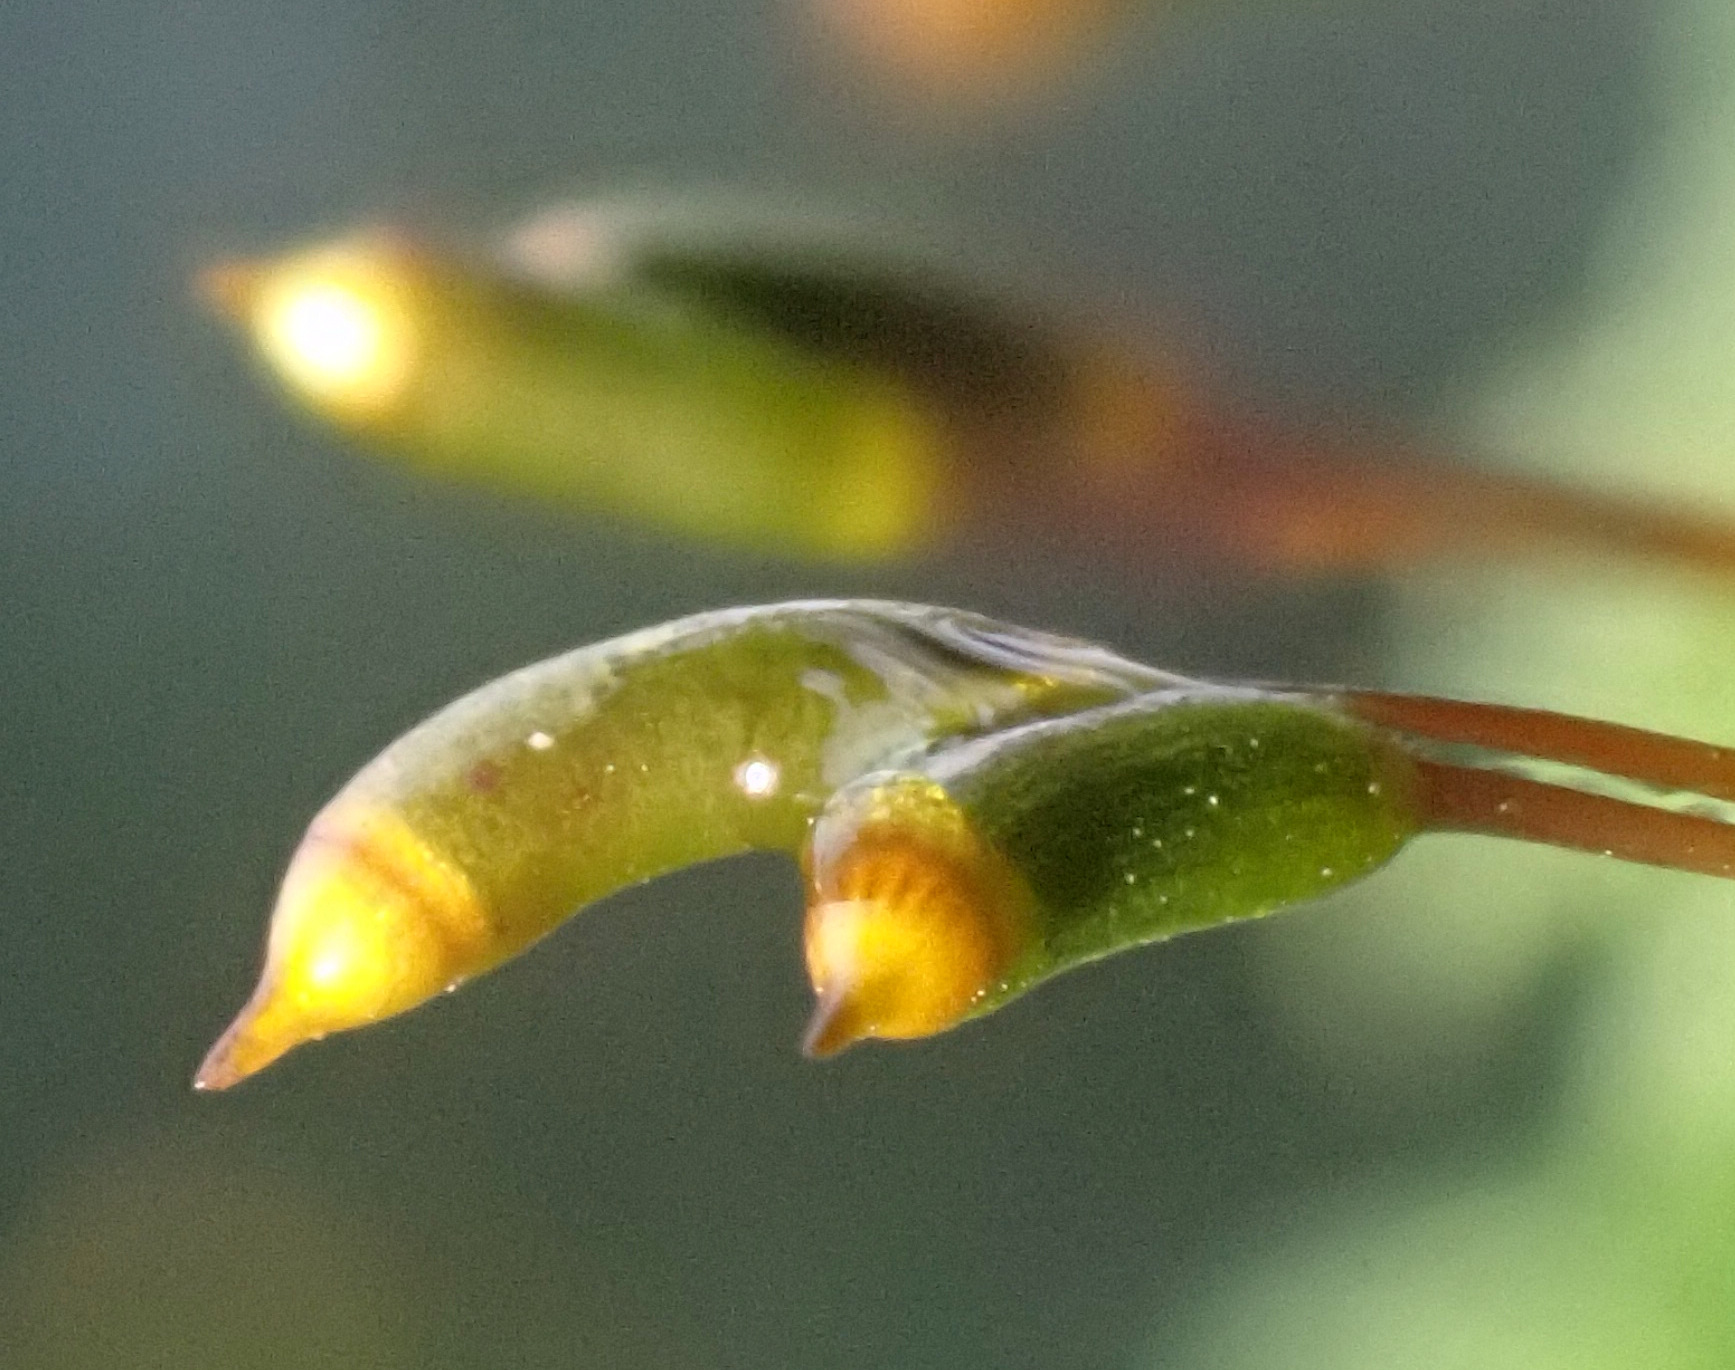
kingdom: Plantae
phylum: Bryophyta
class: Bryopsida
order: Hypnales
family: Hypnaceae
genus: Hypnum
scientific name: Hypnum cupressiforme
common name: Cypress-leaved plait-moss
